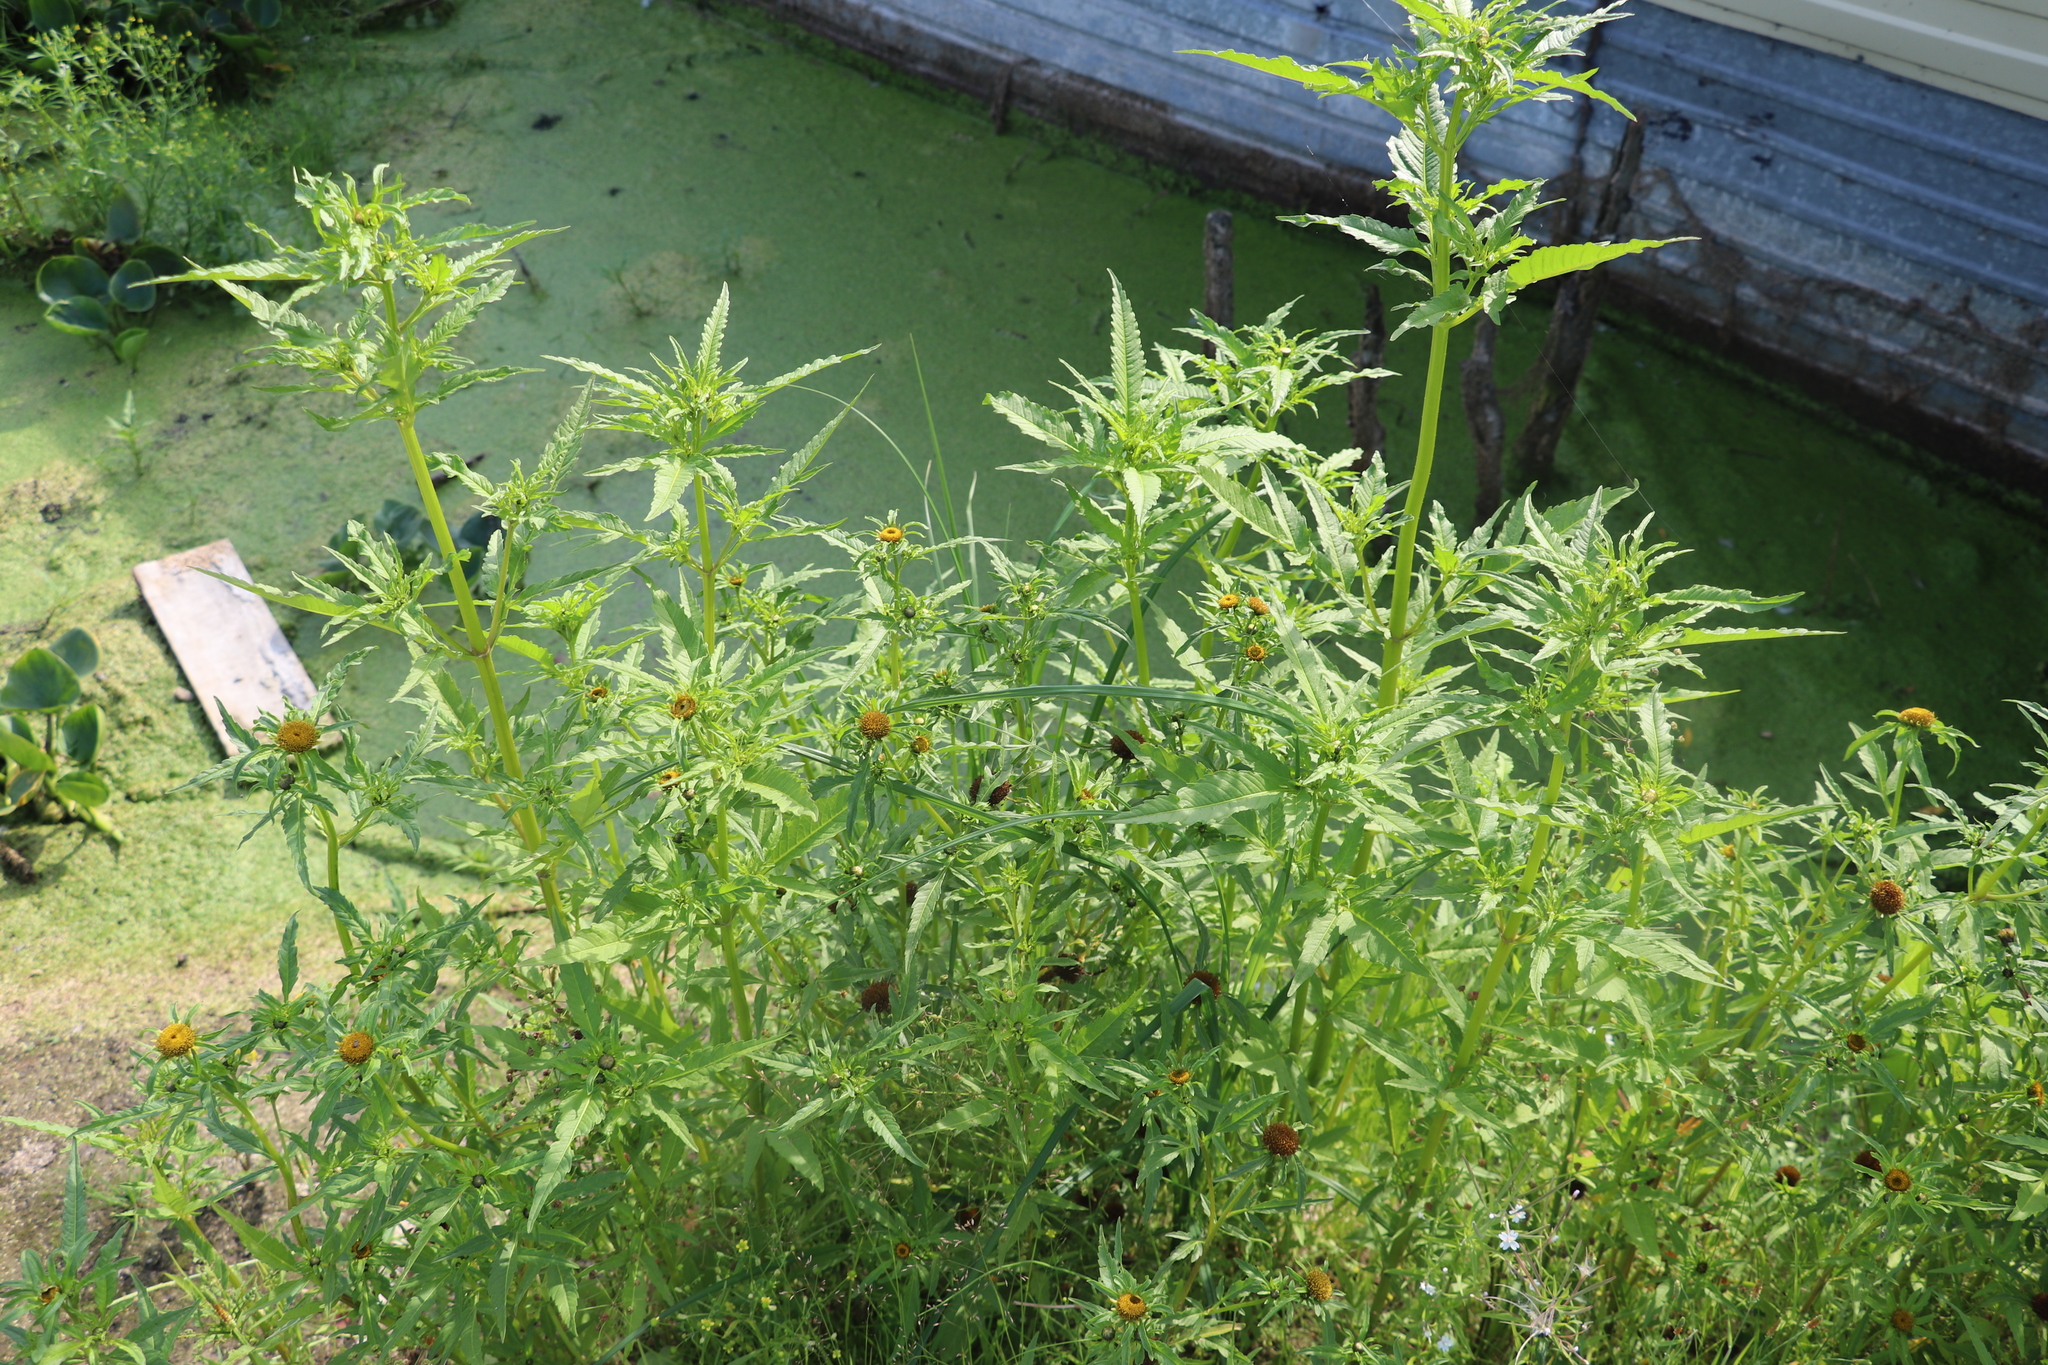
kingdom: Plantae
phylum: Tracheophyta
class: Magnoliopsida
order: Asterales
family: Asteraceae
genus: Bidens
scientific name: Bidens tripartita
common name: Trifid bur-marigold
